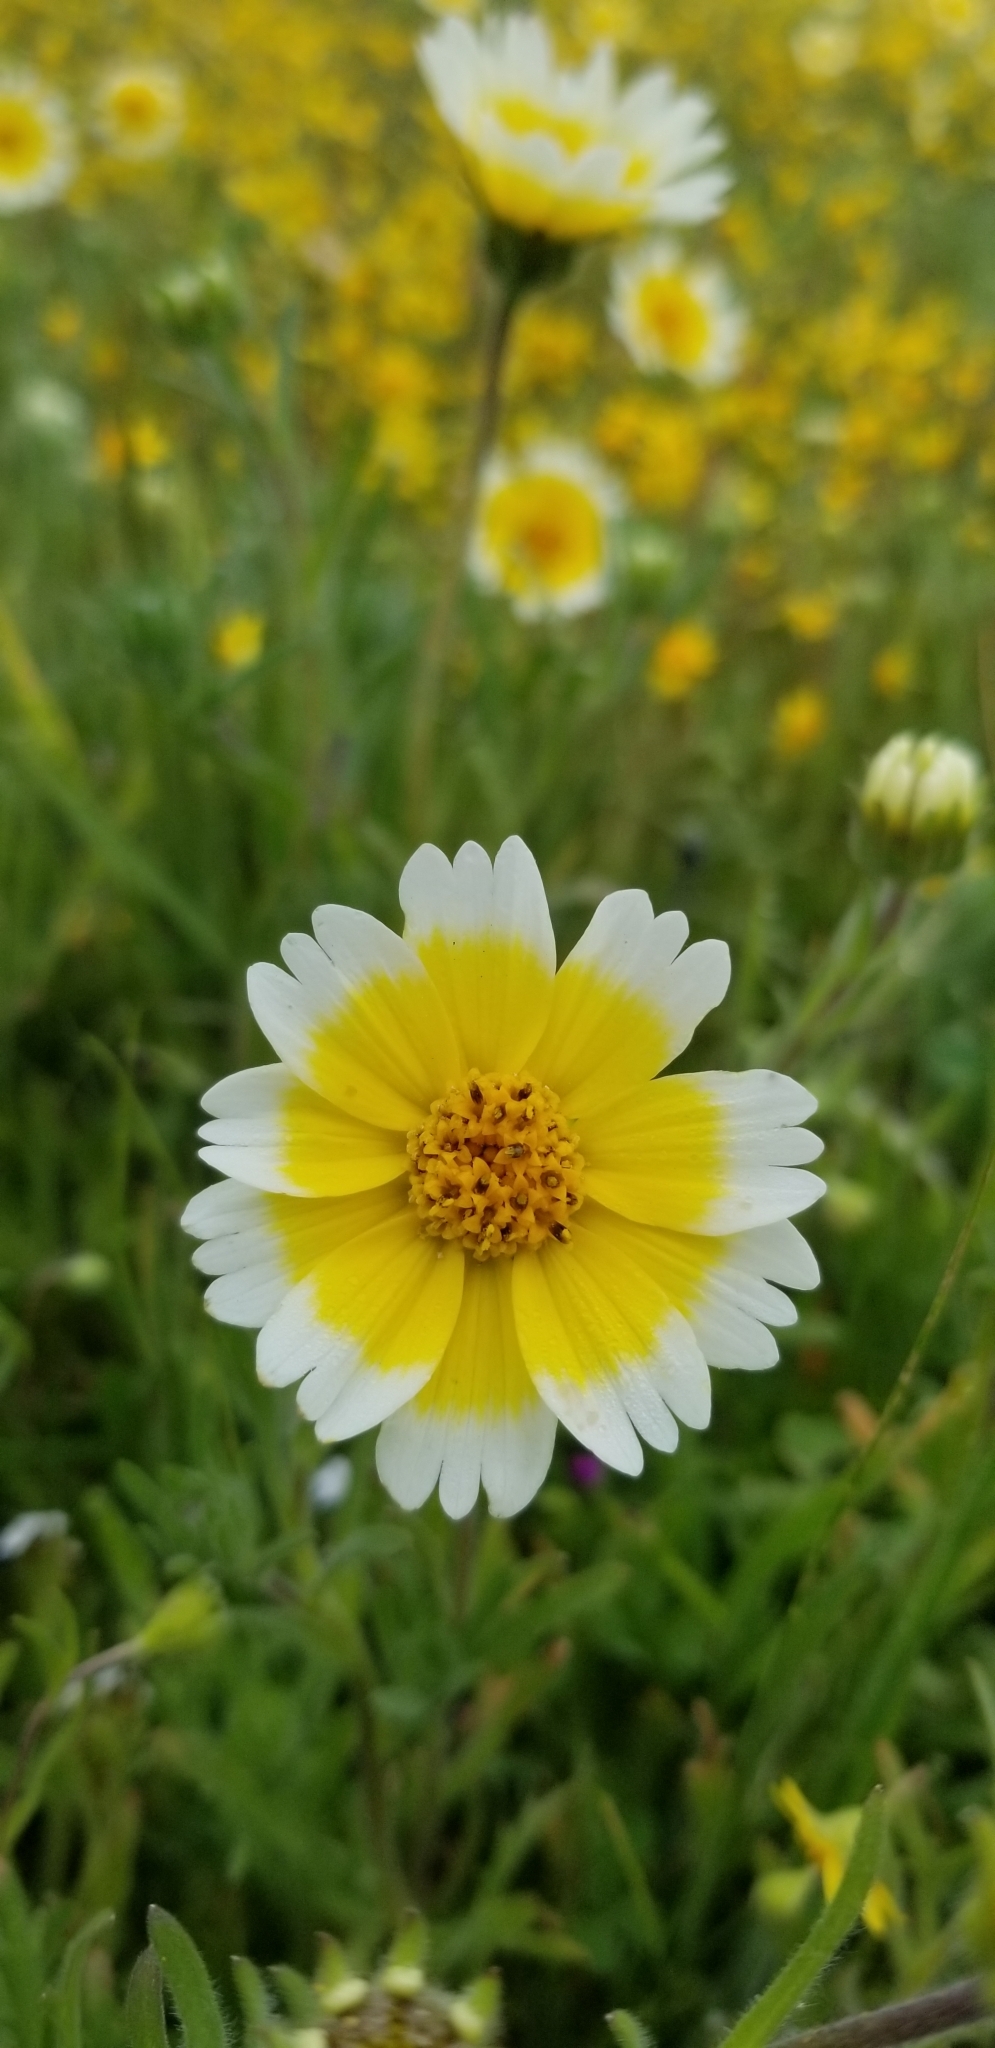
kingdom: Plantae
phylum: Tracheophyta
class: Magnoliopsida
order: Asterales
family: Asteraceae
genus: Layia
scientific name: Layia platyglossa
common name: Tidy-tips
